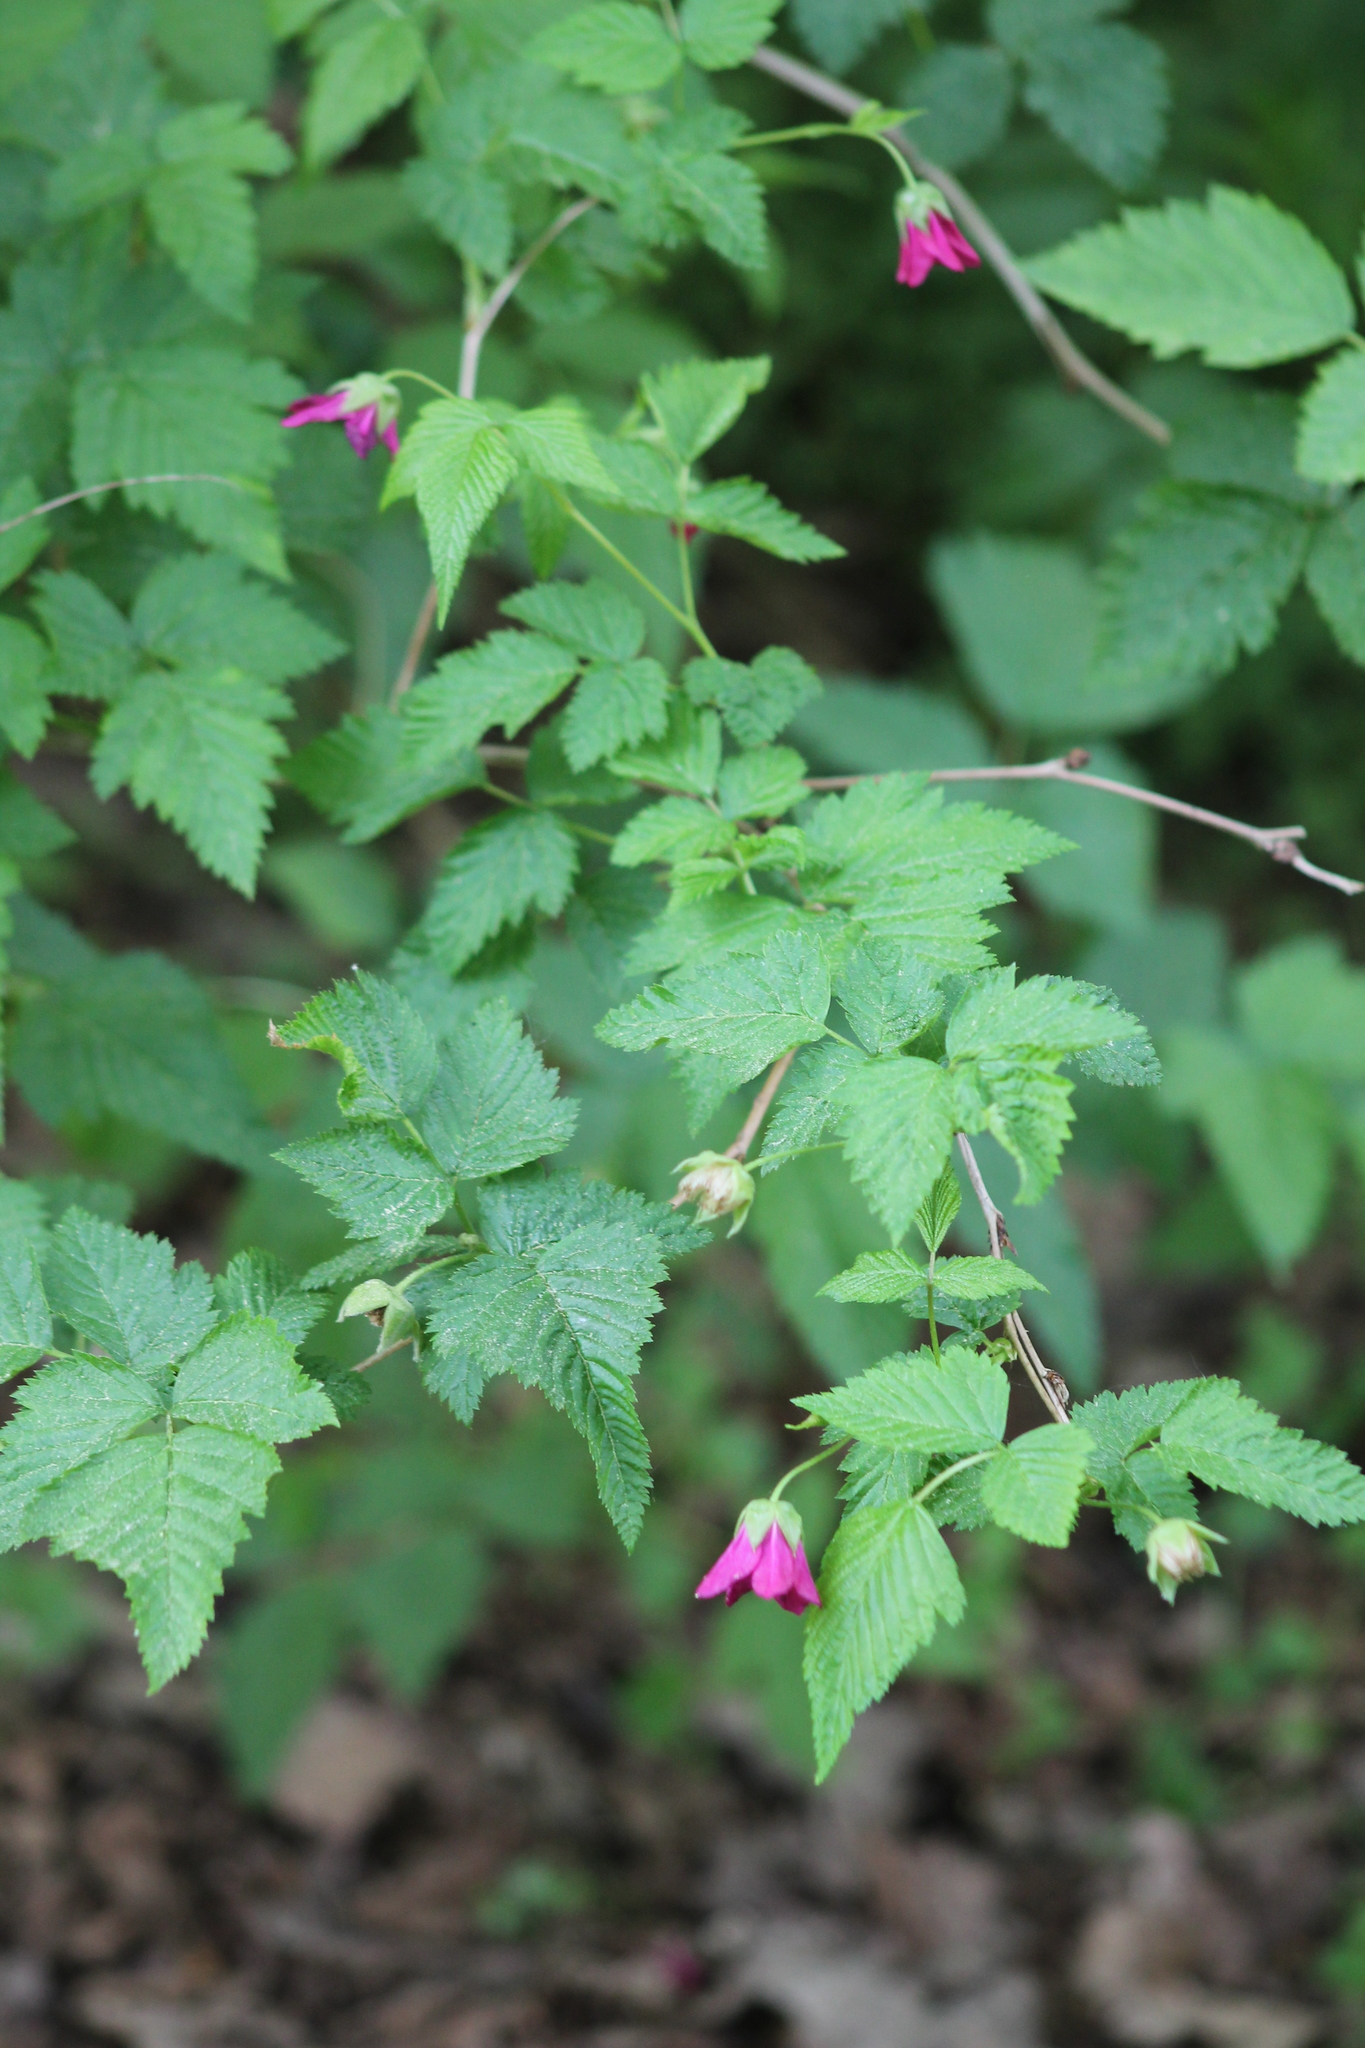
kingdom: Plantae
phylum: Tracheophyta
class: Magnoliopsida
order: Rosales
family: Rosaceae
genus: Rubus
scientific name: Rubus spectabilis
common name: Salmonberry
